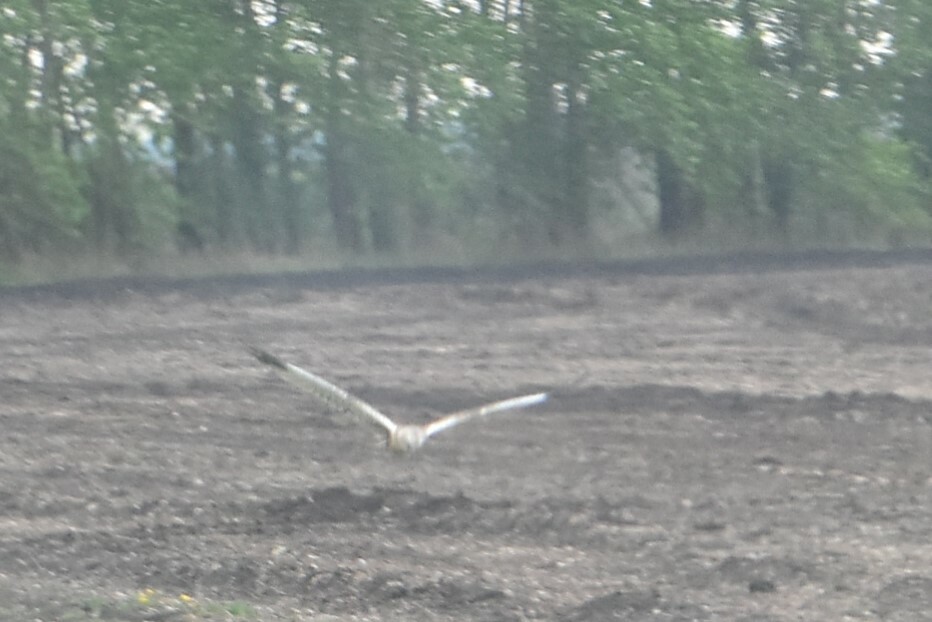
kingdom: Animalia
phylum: Chordata
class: Aves
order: Accipitriformes
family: Accipitridae
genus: Circus
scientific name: Circus aeruginosus
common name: Western marsh harrier
